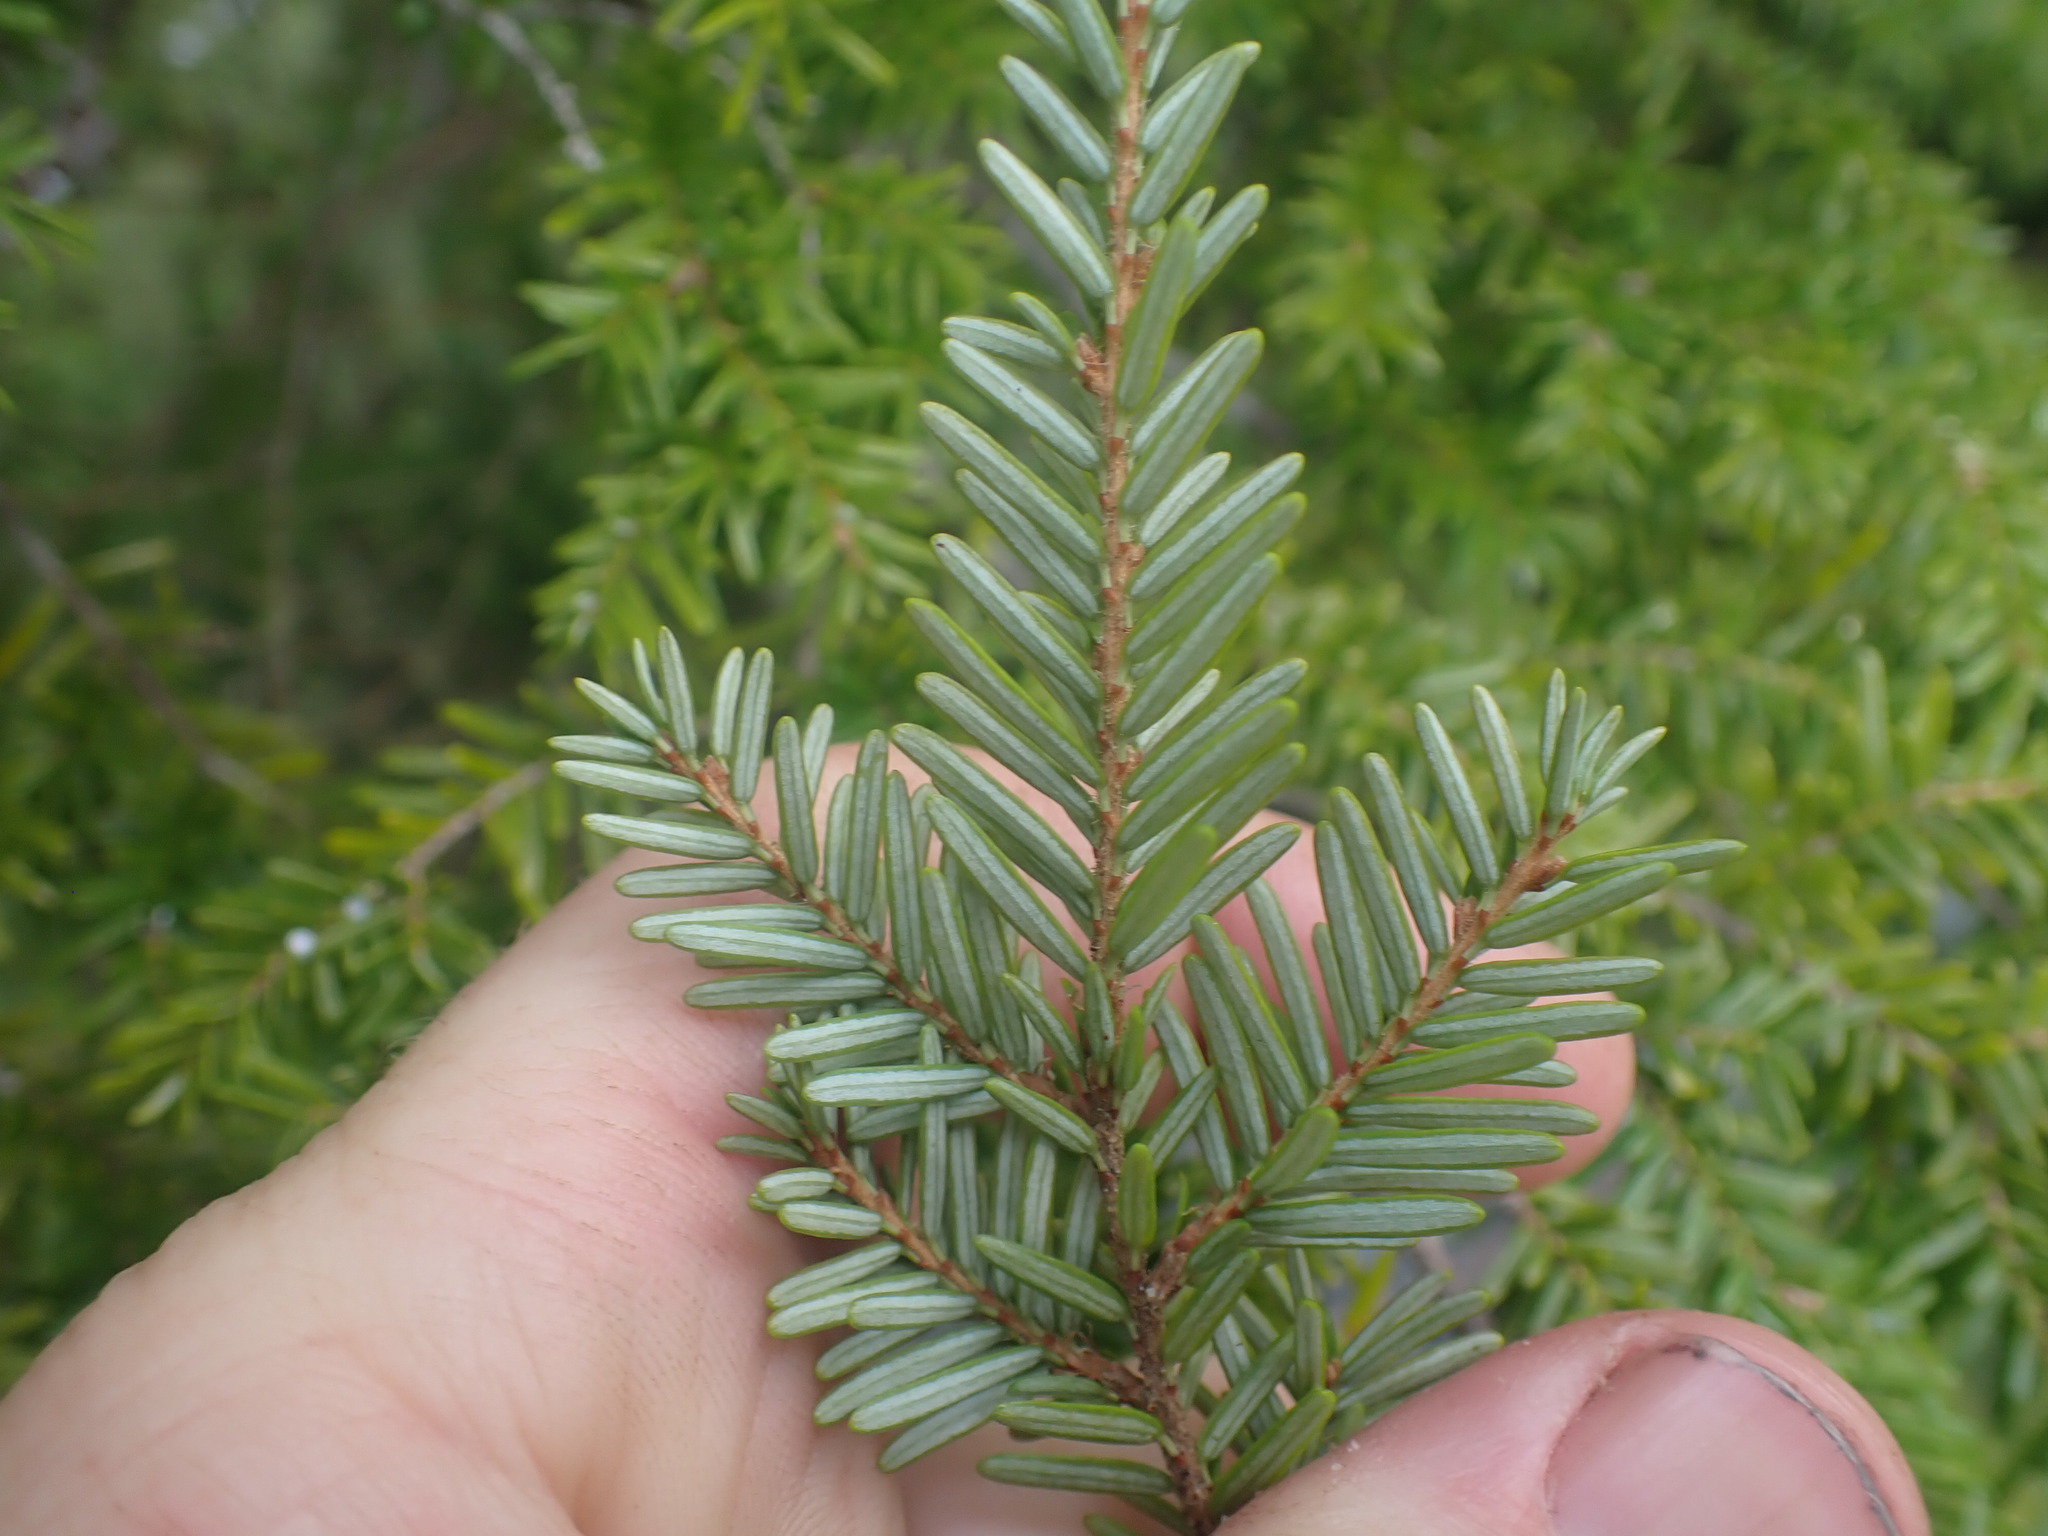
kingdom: Plantae
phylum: Tracheophyta
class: Pinopsida
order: Pinales
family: Pinaceae
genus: Tsuga
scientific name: Tsuga heterophylla
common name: Western hemlock
